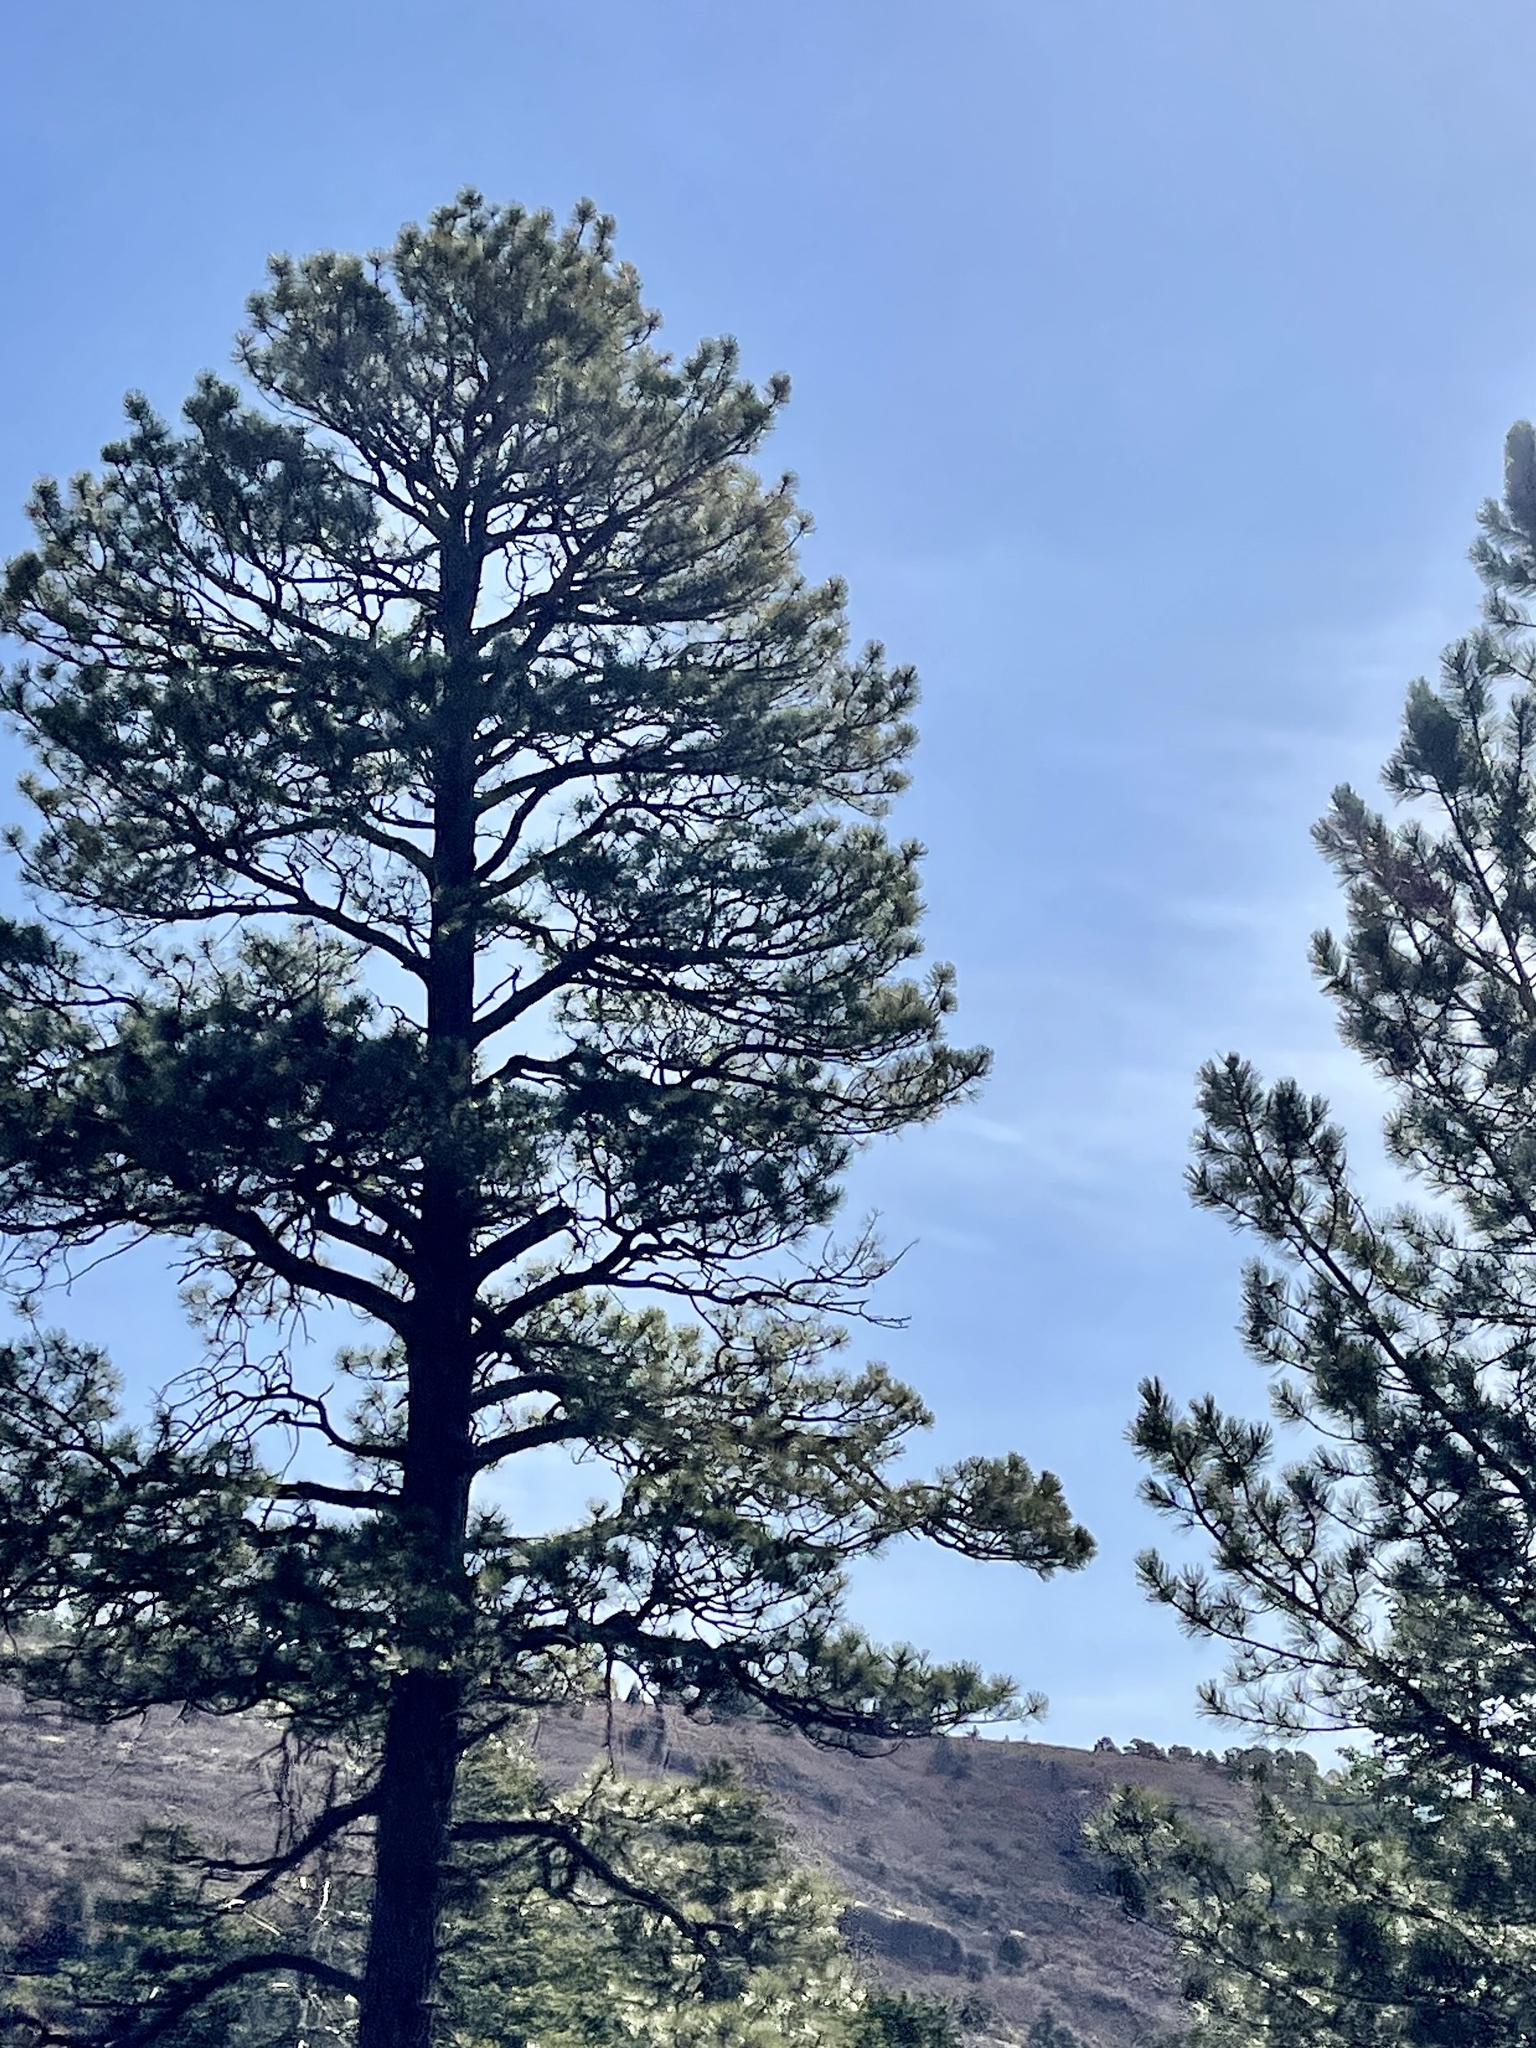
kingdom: Plantae
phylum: Tracheophyta
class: Pinopsida
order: Pinales
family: Pinaceae
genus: Pinus
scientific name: Pinus ponderosa
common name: Western yellow-pine
